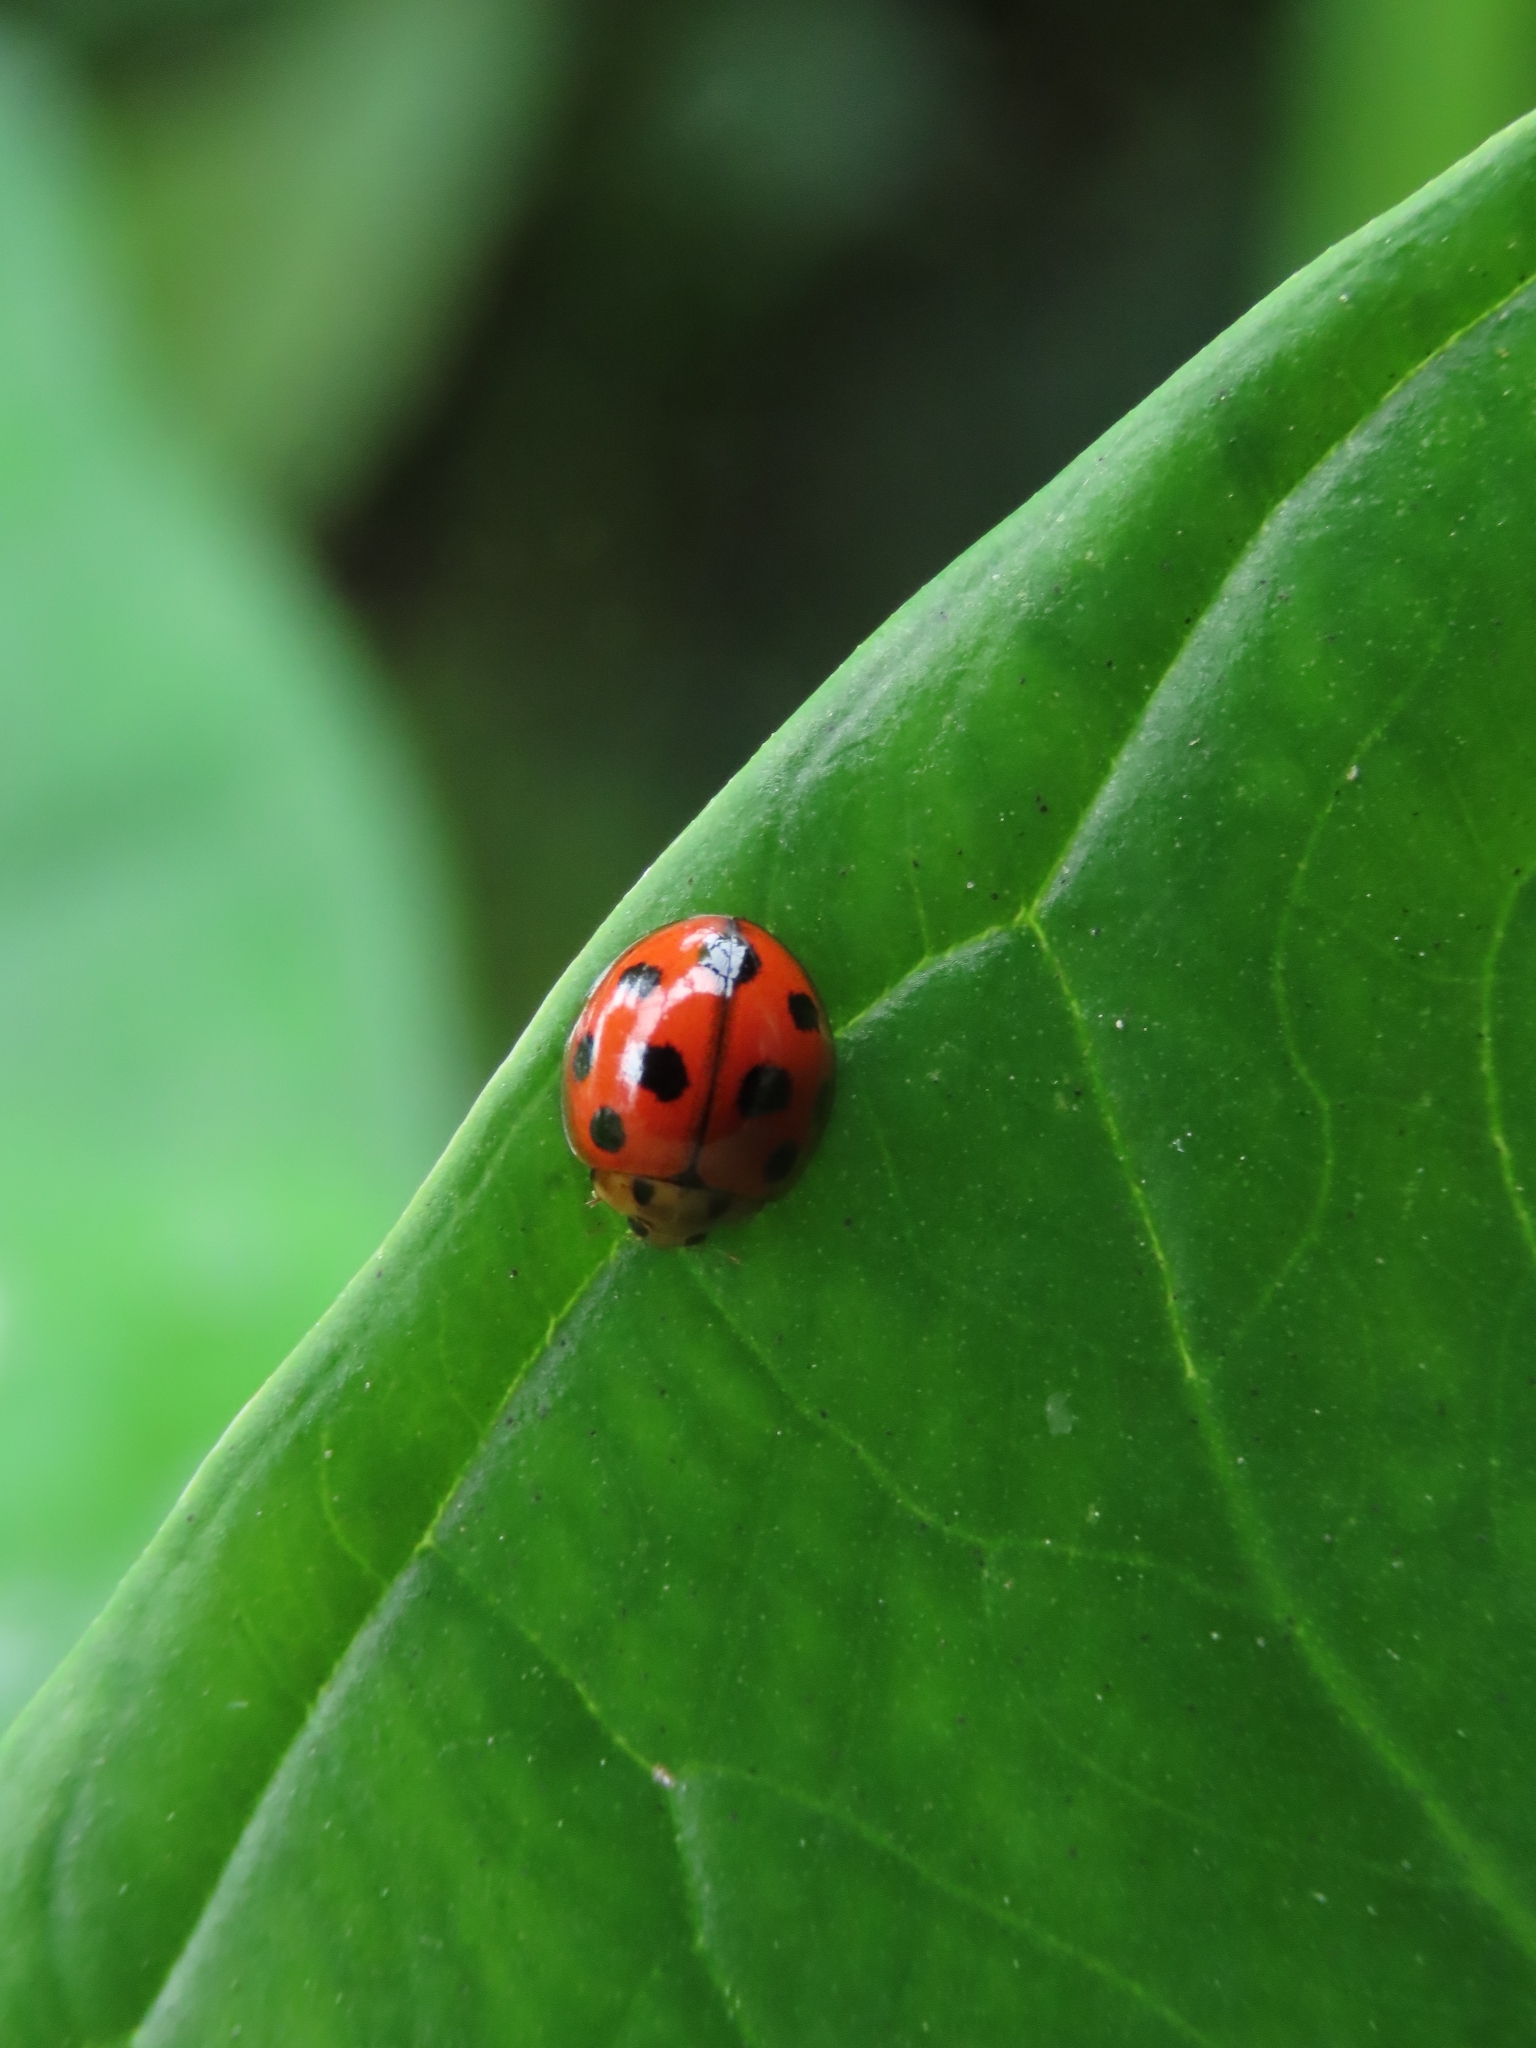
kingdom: Animalia
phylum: Arthropoda
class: Insecta
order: Coleoptera
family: Coccinellidae
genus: Coelophora
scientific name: Coelophora inaequalis
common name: Common australian lady beetle
